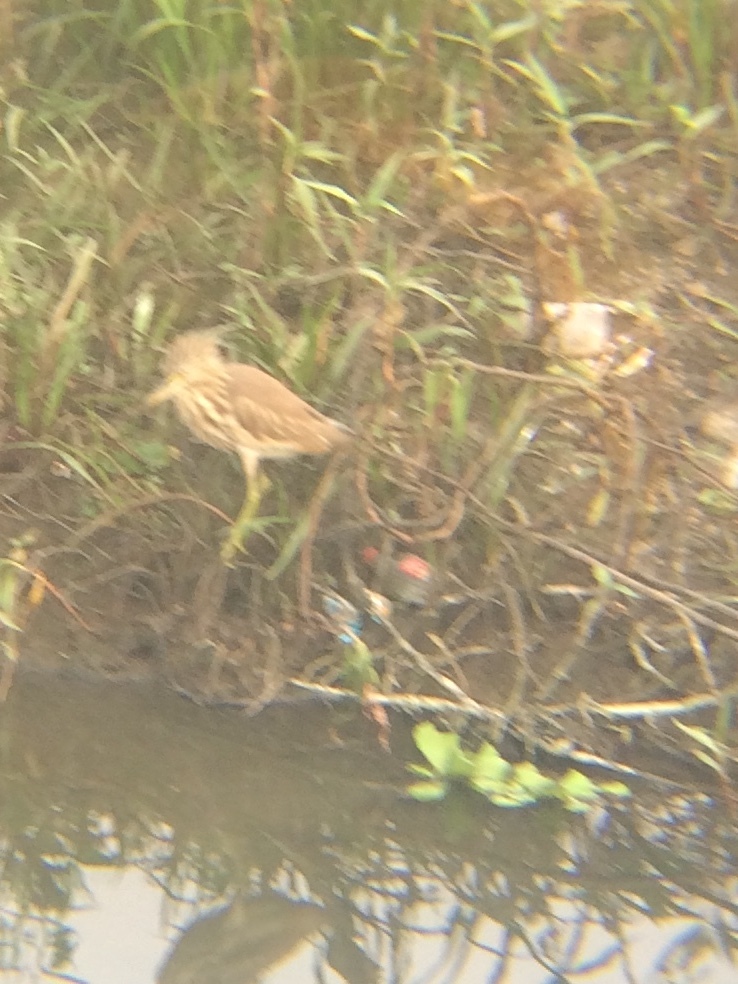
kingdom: Animalia
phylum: Chordata
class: Aves
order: Pelecaniformes
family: Ardeidae
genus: Ardeola
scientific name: Ardeola grayii
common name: Indian pond heron
